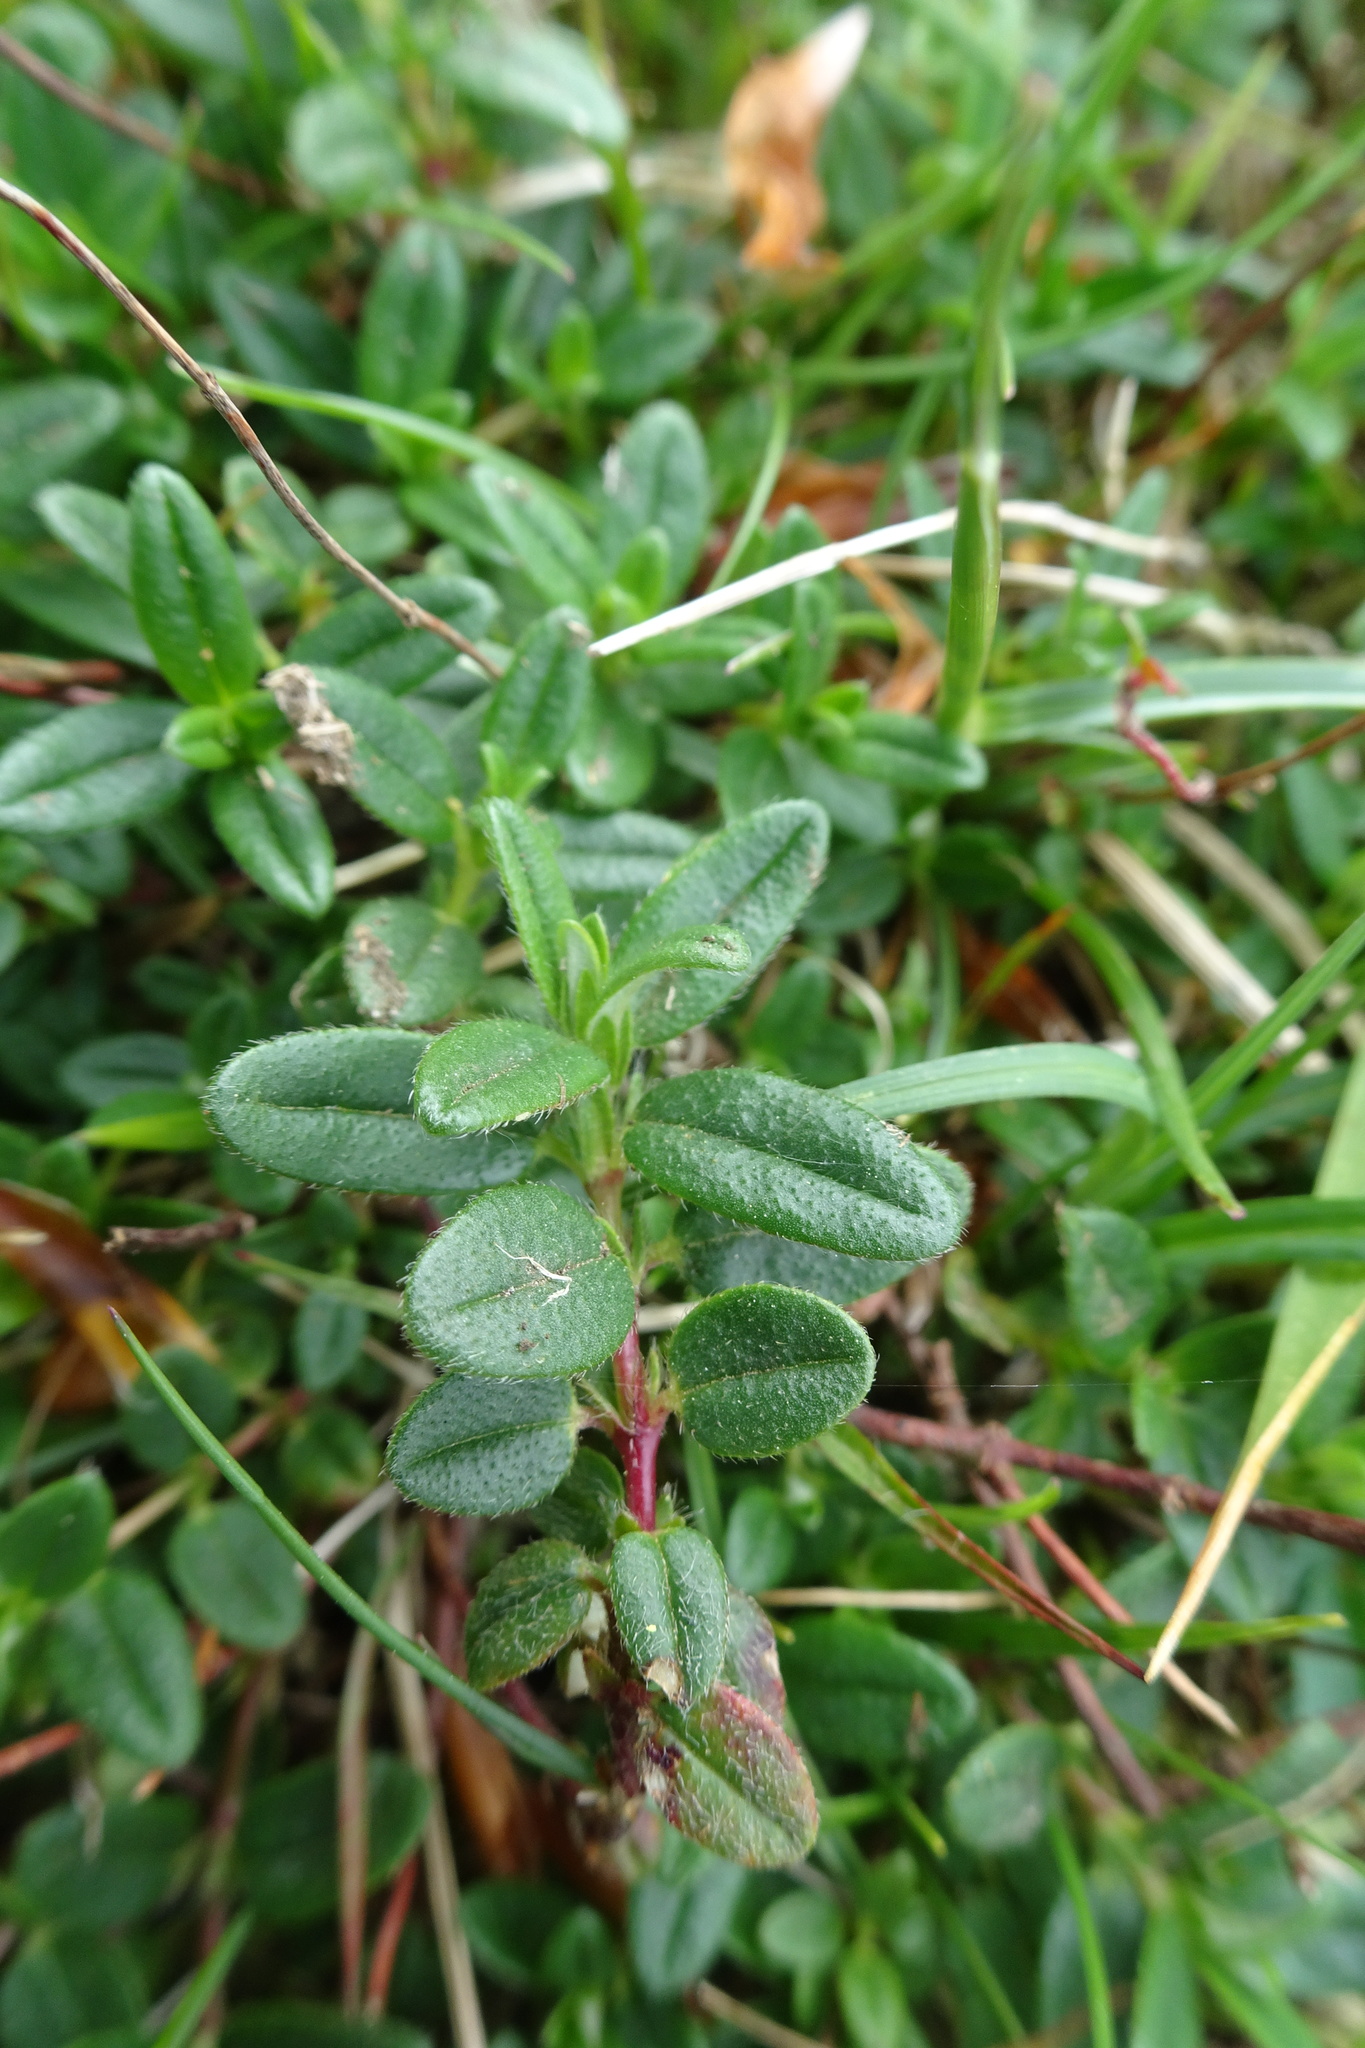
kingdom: Plantae
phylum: Tracheophyta
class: Magnoliopsida
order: Malvales
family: Cistaceae
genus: Helianthemum
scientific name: Helianthemum nummularium
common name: Common rock-rose
